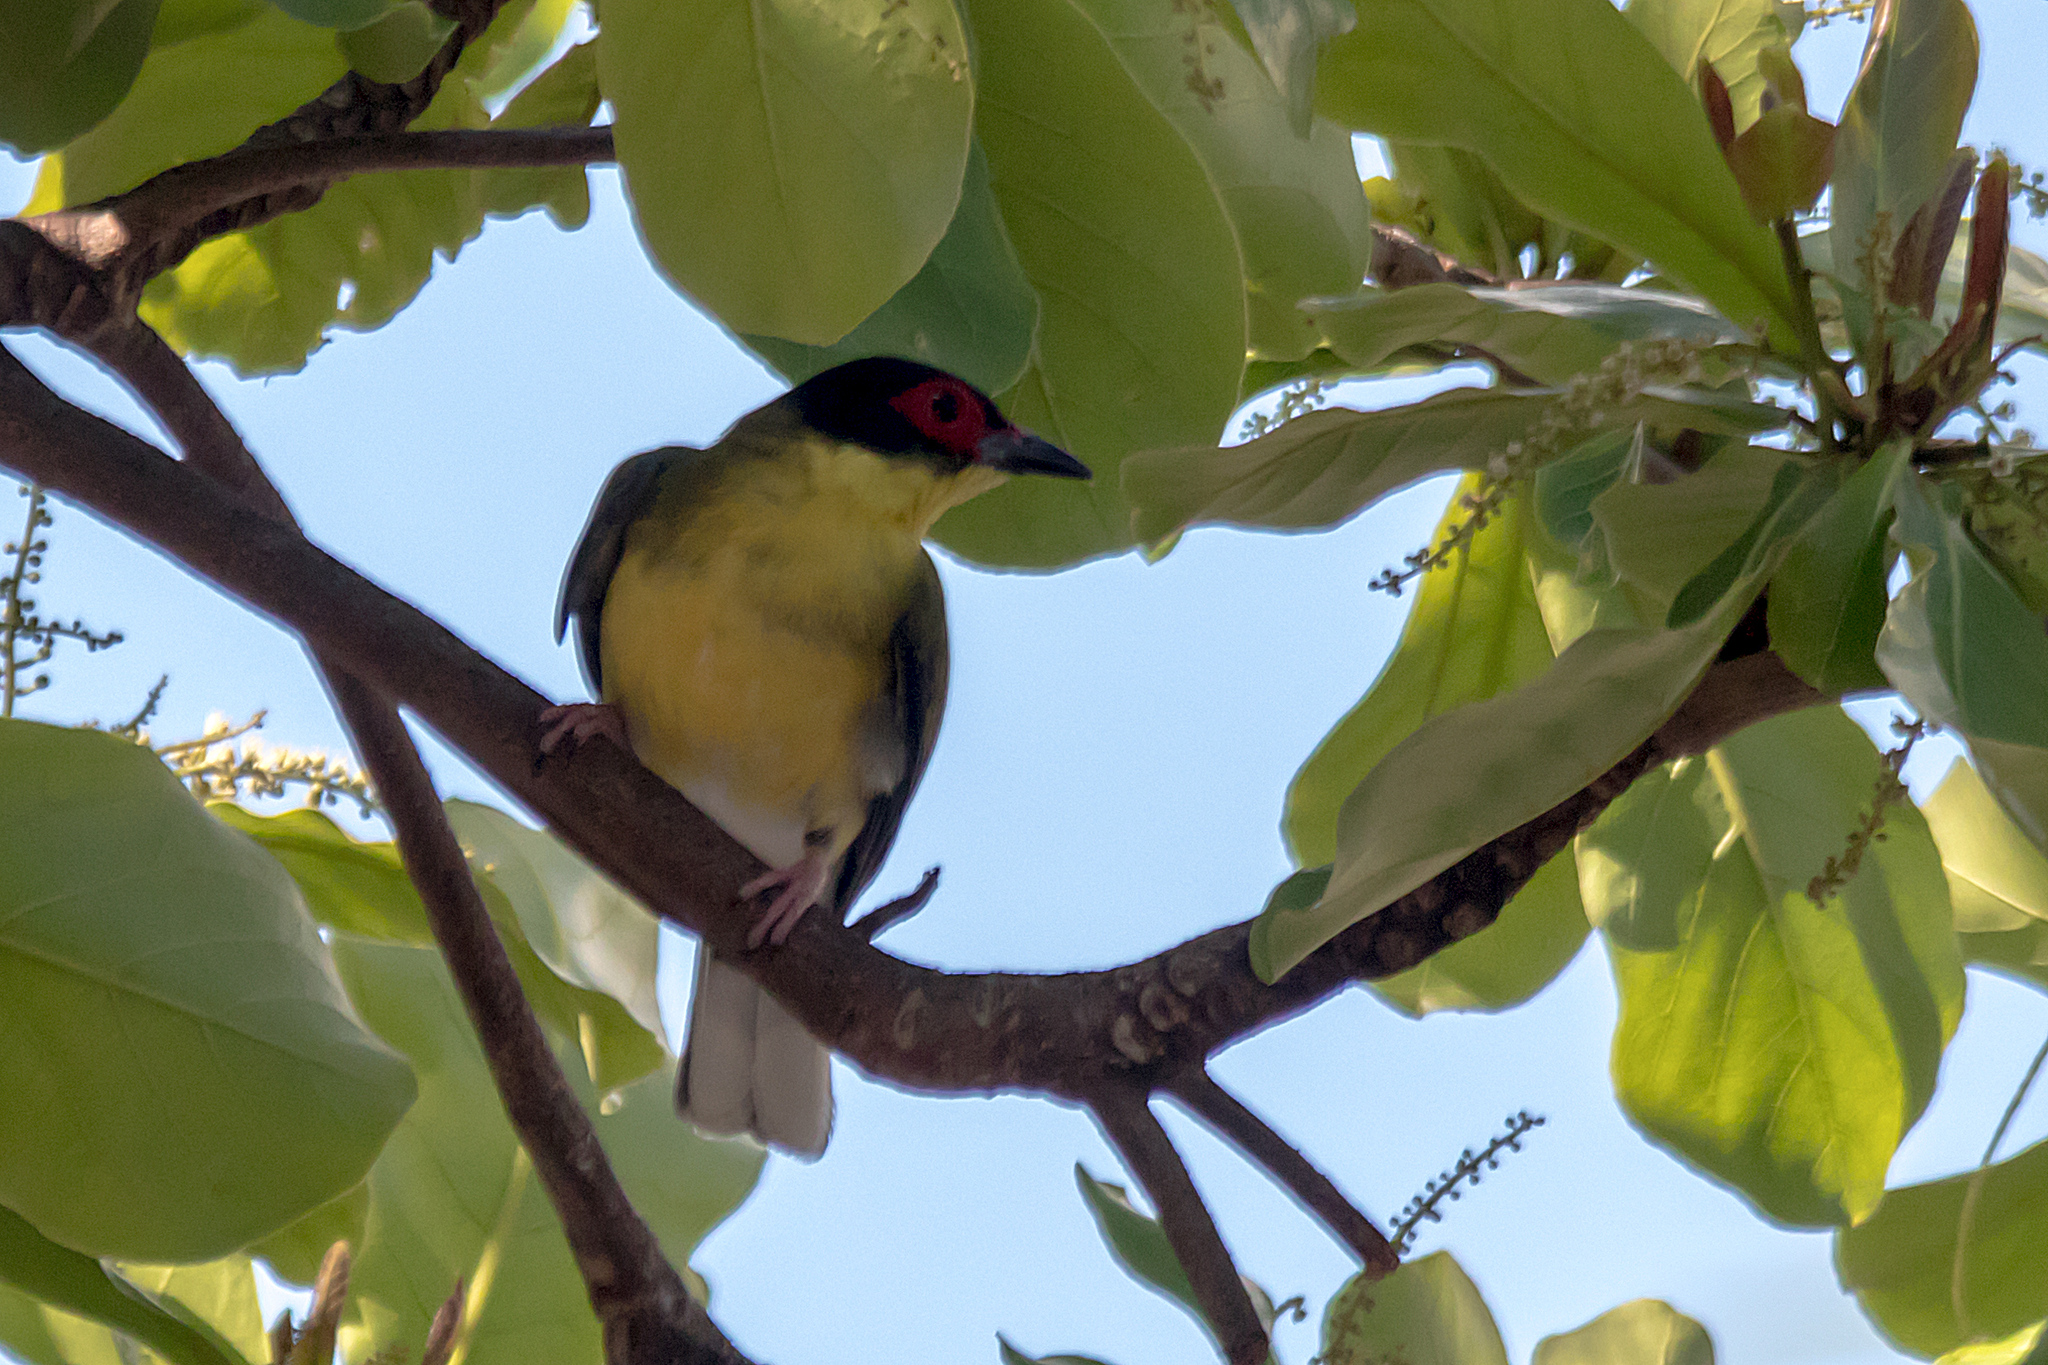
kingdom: Animalia
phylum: Chordata
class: Aves
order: Passeriformes
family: Oriolidae
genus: Sphecotheres
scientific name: Sphecotheres vieilloti
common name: Australasian figbird
